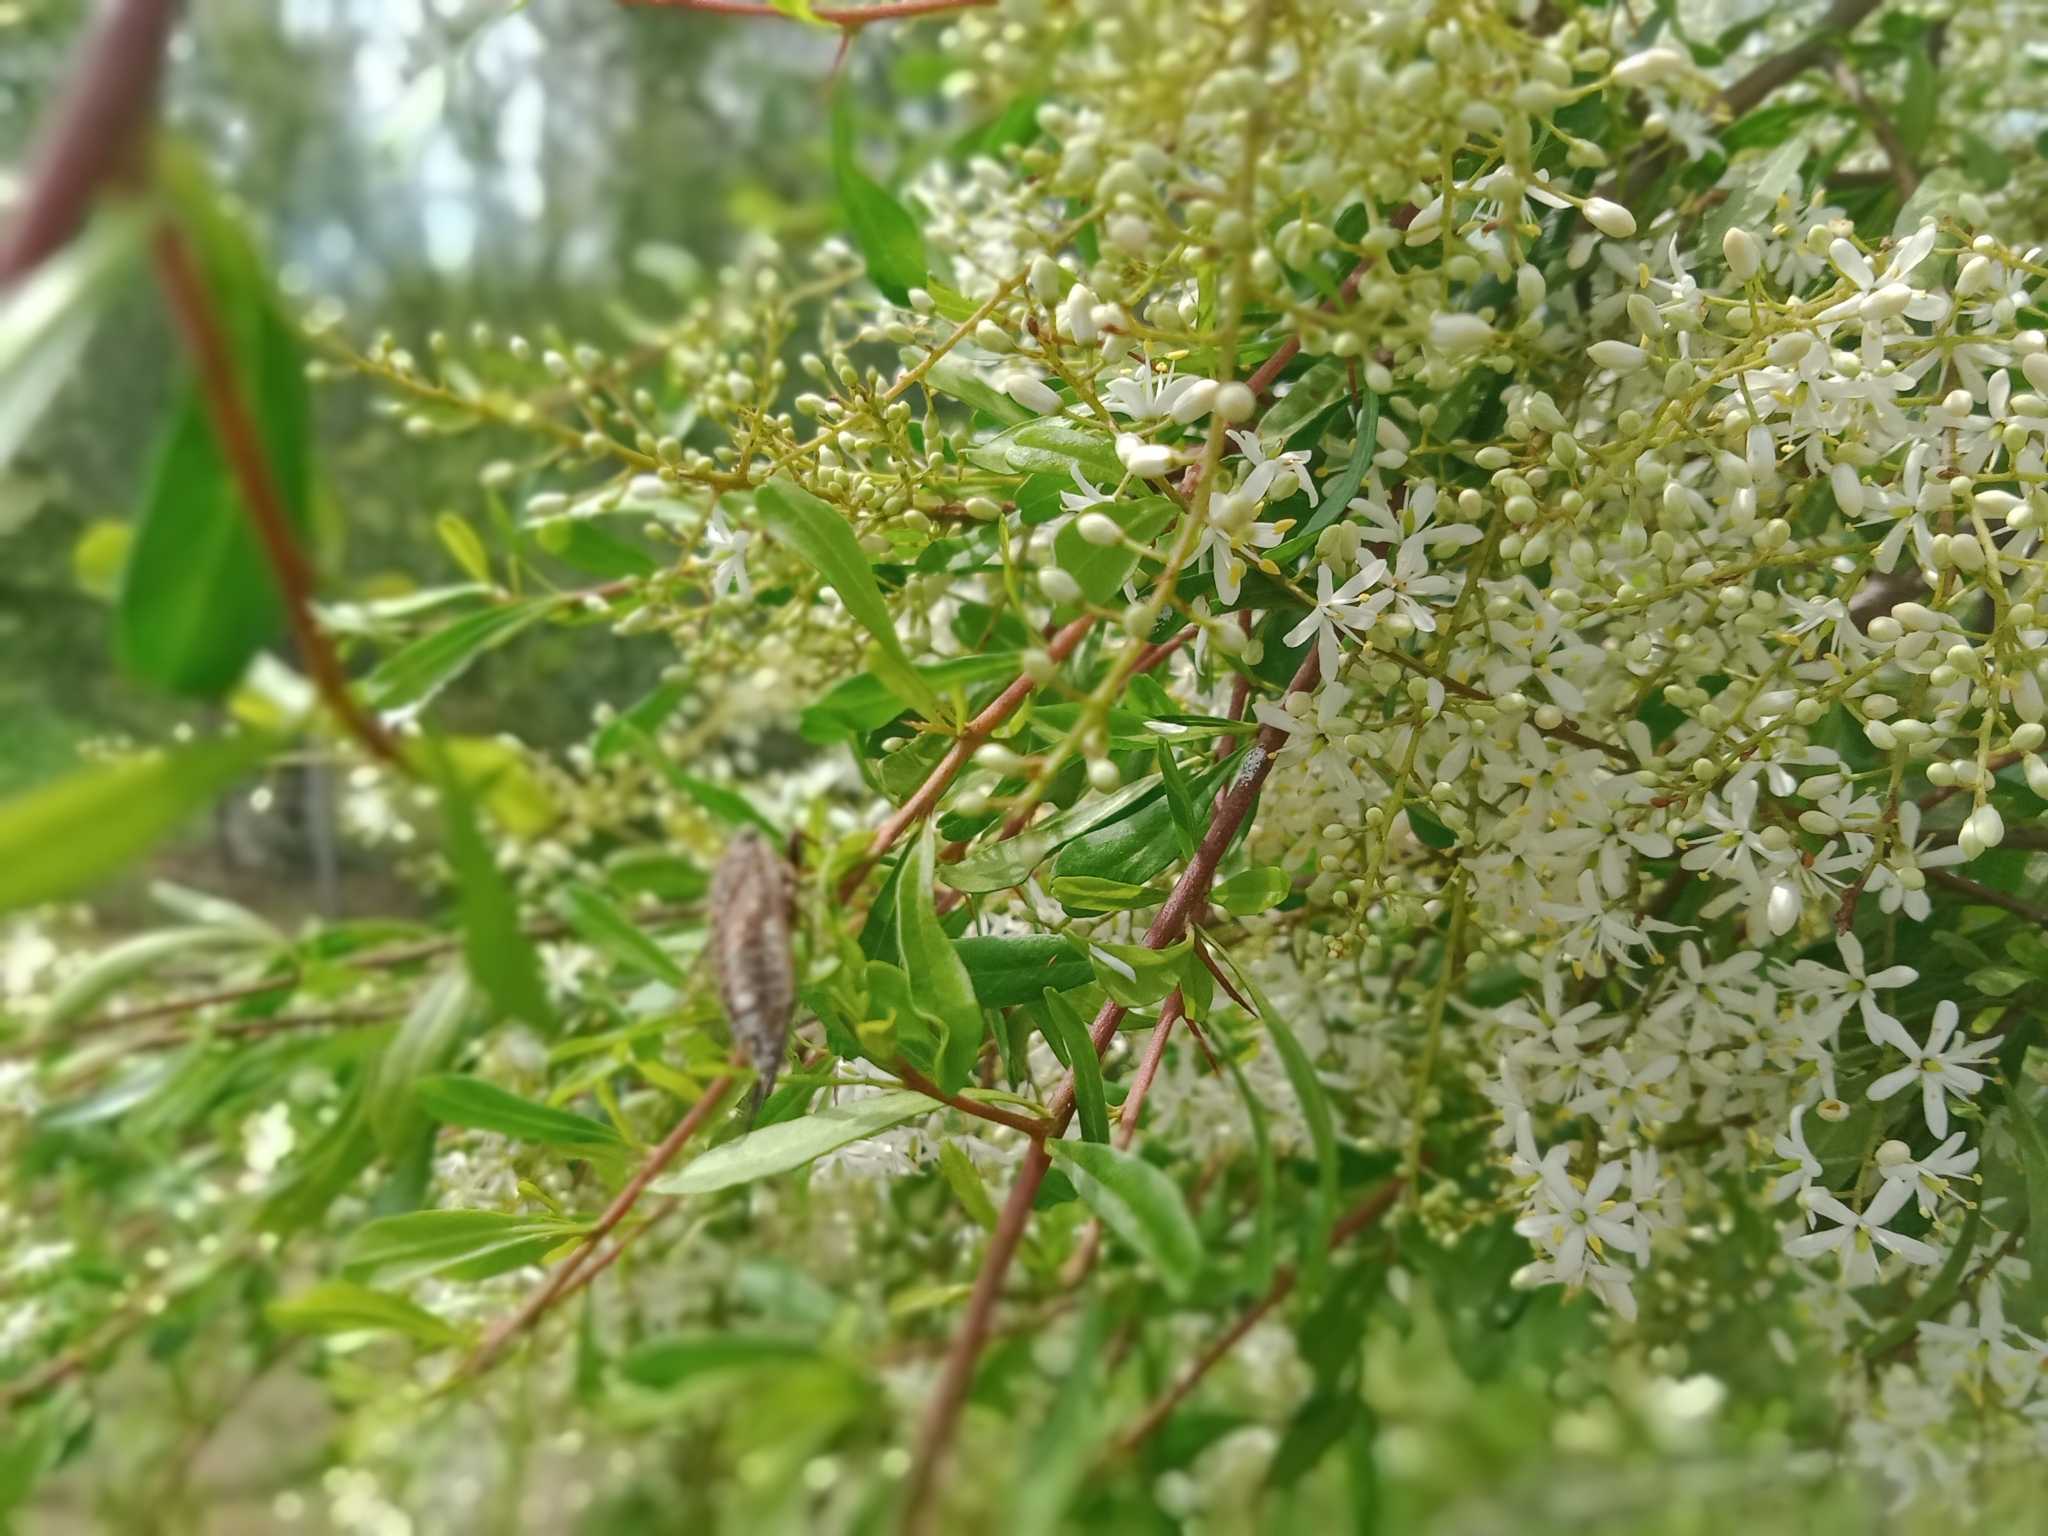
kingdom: Animalia
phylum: Arthropoda
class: Insecta
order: Hemiptera
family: Cicadidae
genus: Yoyetta
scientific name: Yoyetta celis
